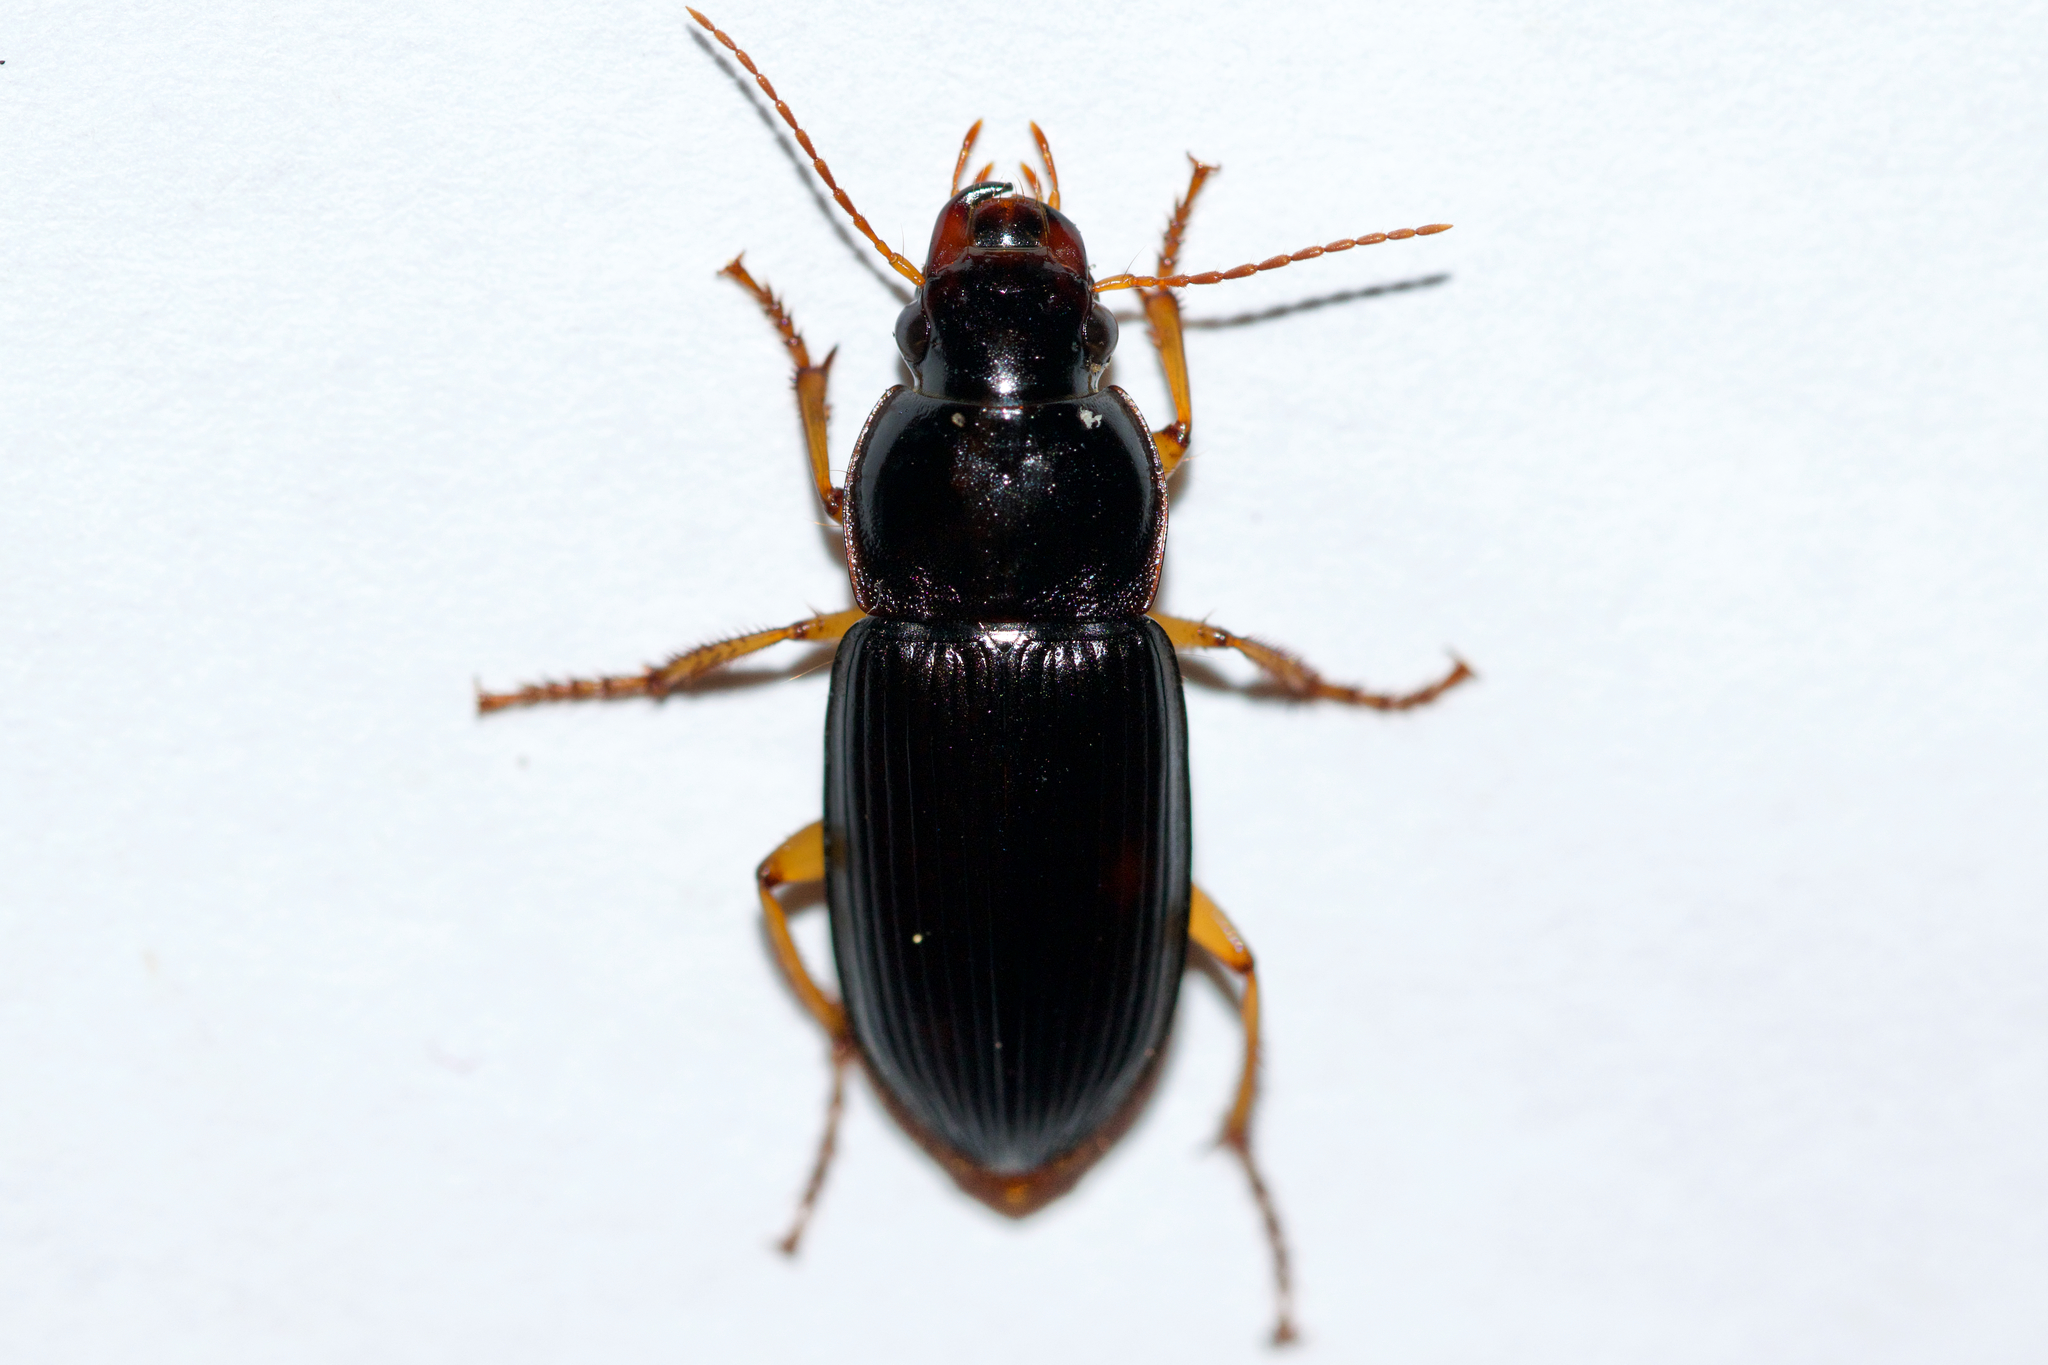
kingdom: Animalia
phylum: Arthropoda
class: Insecta
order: Coleoptera
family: Carabidae
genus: Harpalus
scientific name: Harpalus pensylvanicus
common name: Pennsylvania dingy ground beetle
